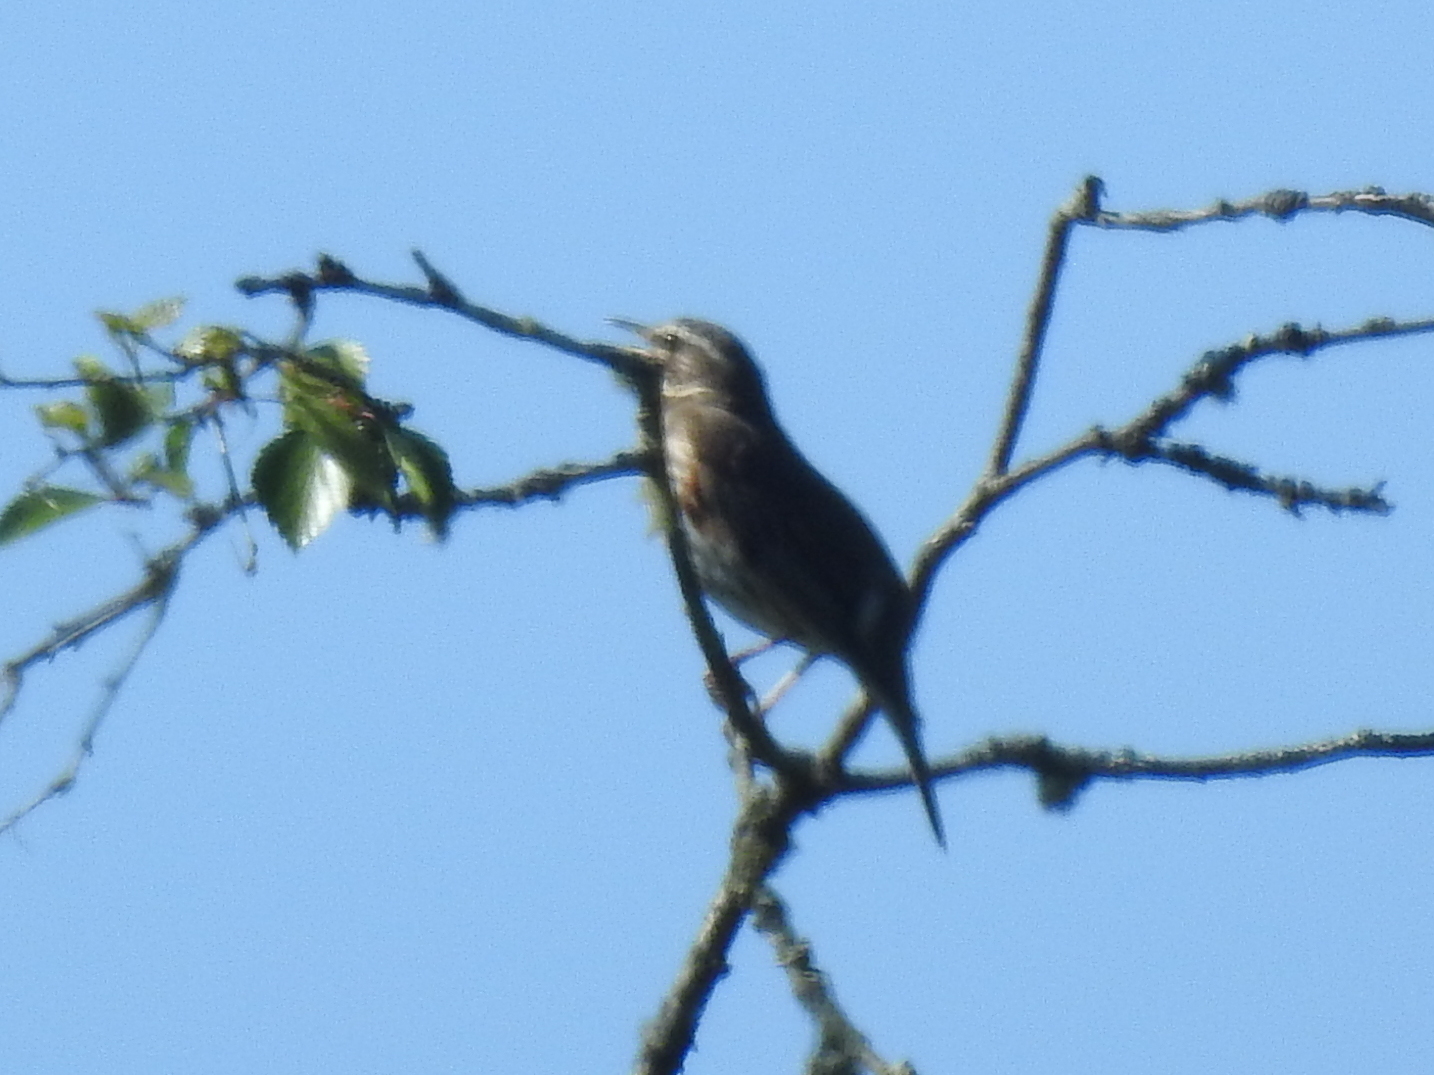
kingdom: Animalia
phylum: Chordata
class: Aves
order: Passeriformes
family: Turdidae
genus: Turdus
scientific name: Turdus iliacus
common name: Redwing
